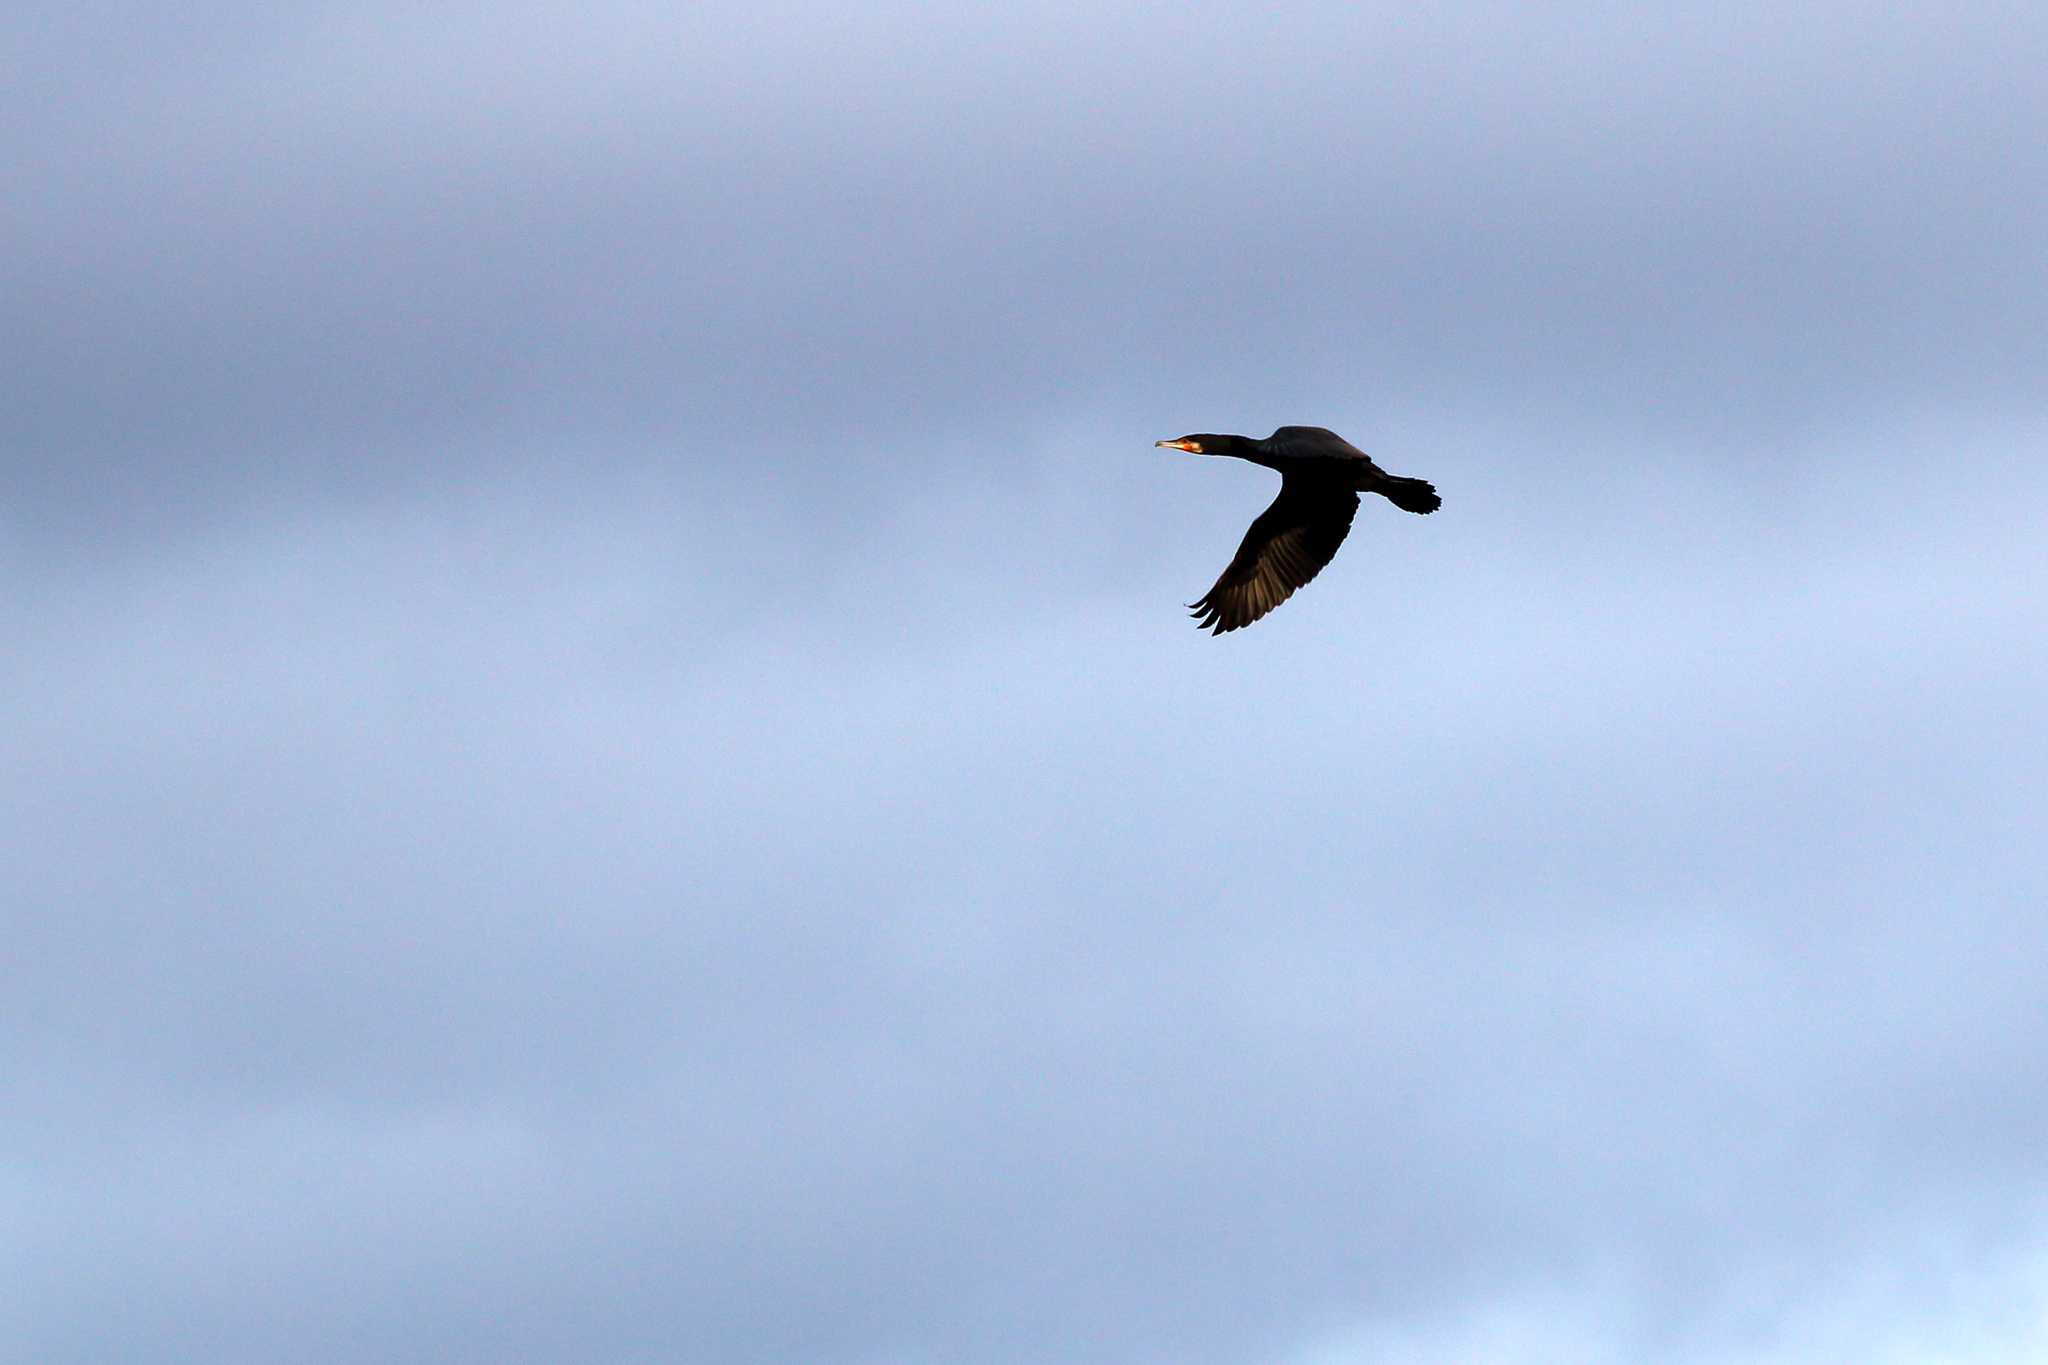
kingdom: Animalia
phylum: Chordata
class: Aves
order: Suliformes
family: Phalacrocoracidae
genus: Phalacrocorax
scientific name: Phalacrocorax carbo
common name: Great cormorant
